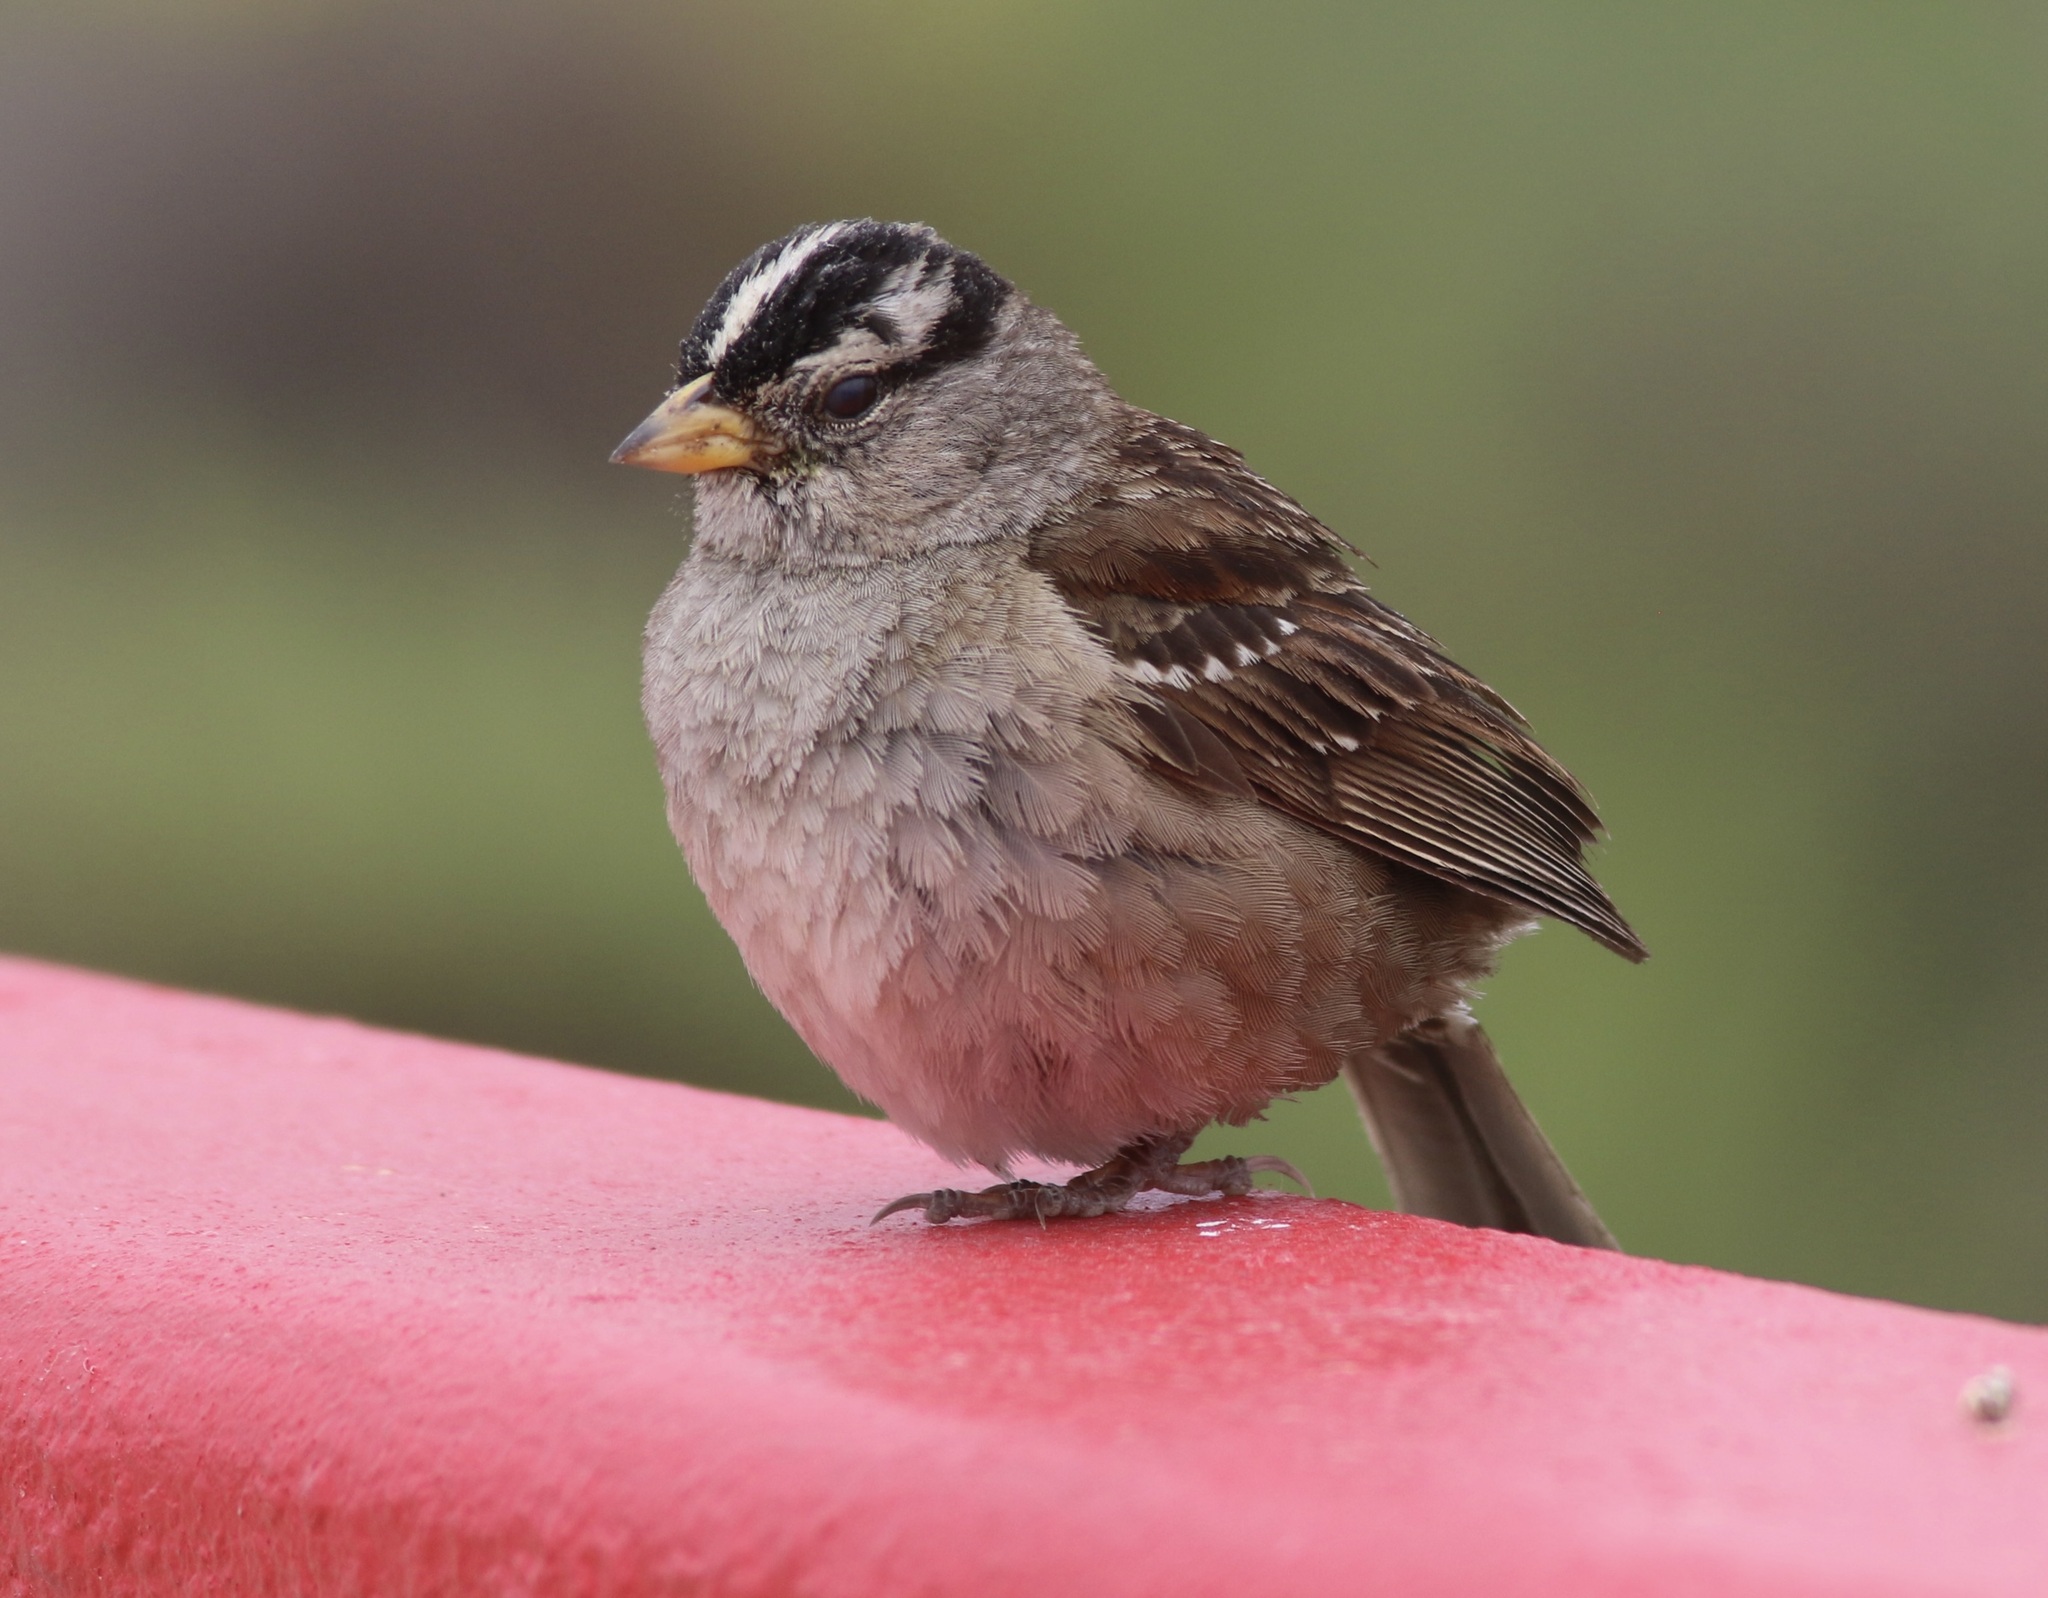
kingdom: Animalia
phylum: Chordata
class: Aves
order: Passeriformes
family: Passerellidae
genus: Zonotrichia
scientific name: Zonotrichia leucophrys
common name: White-crowned sparrow
